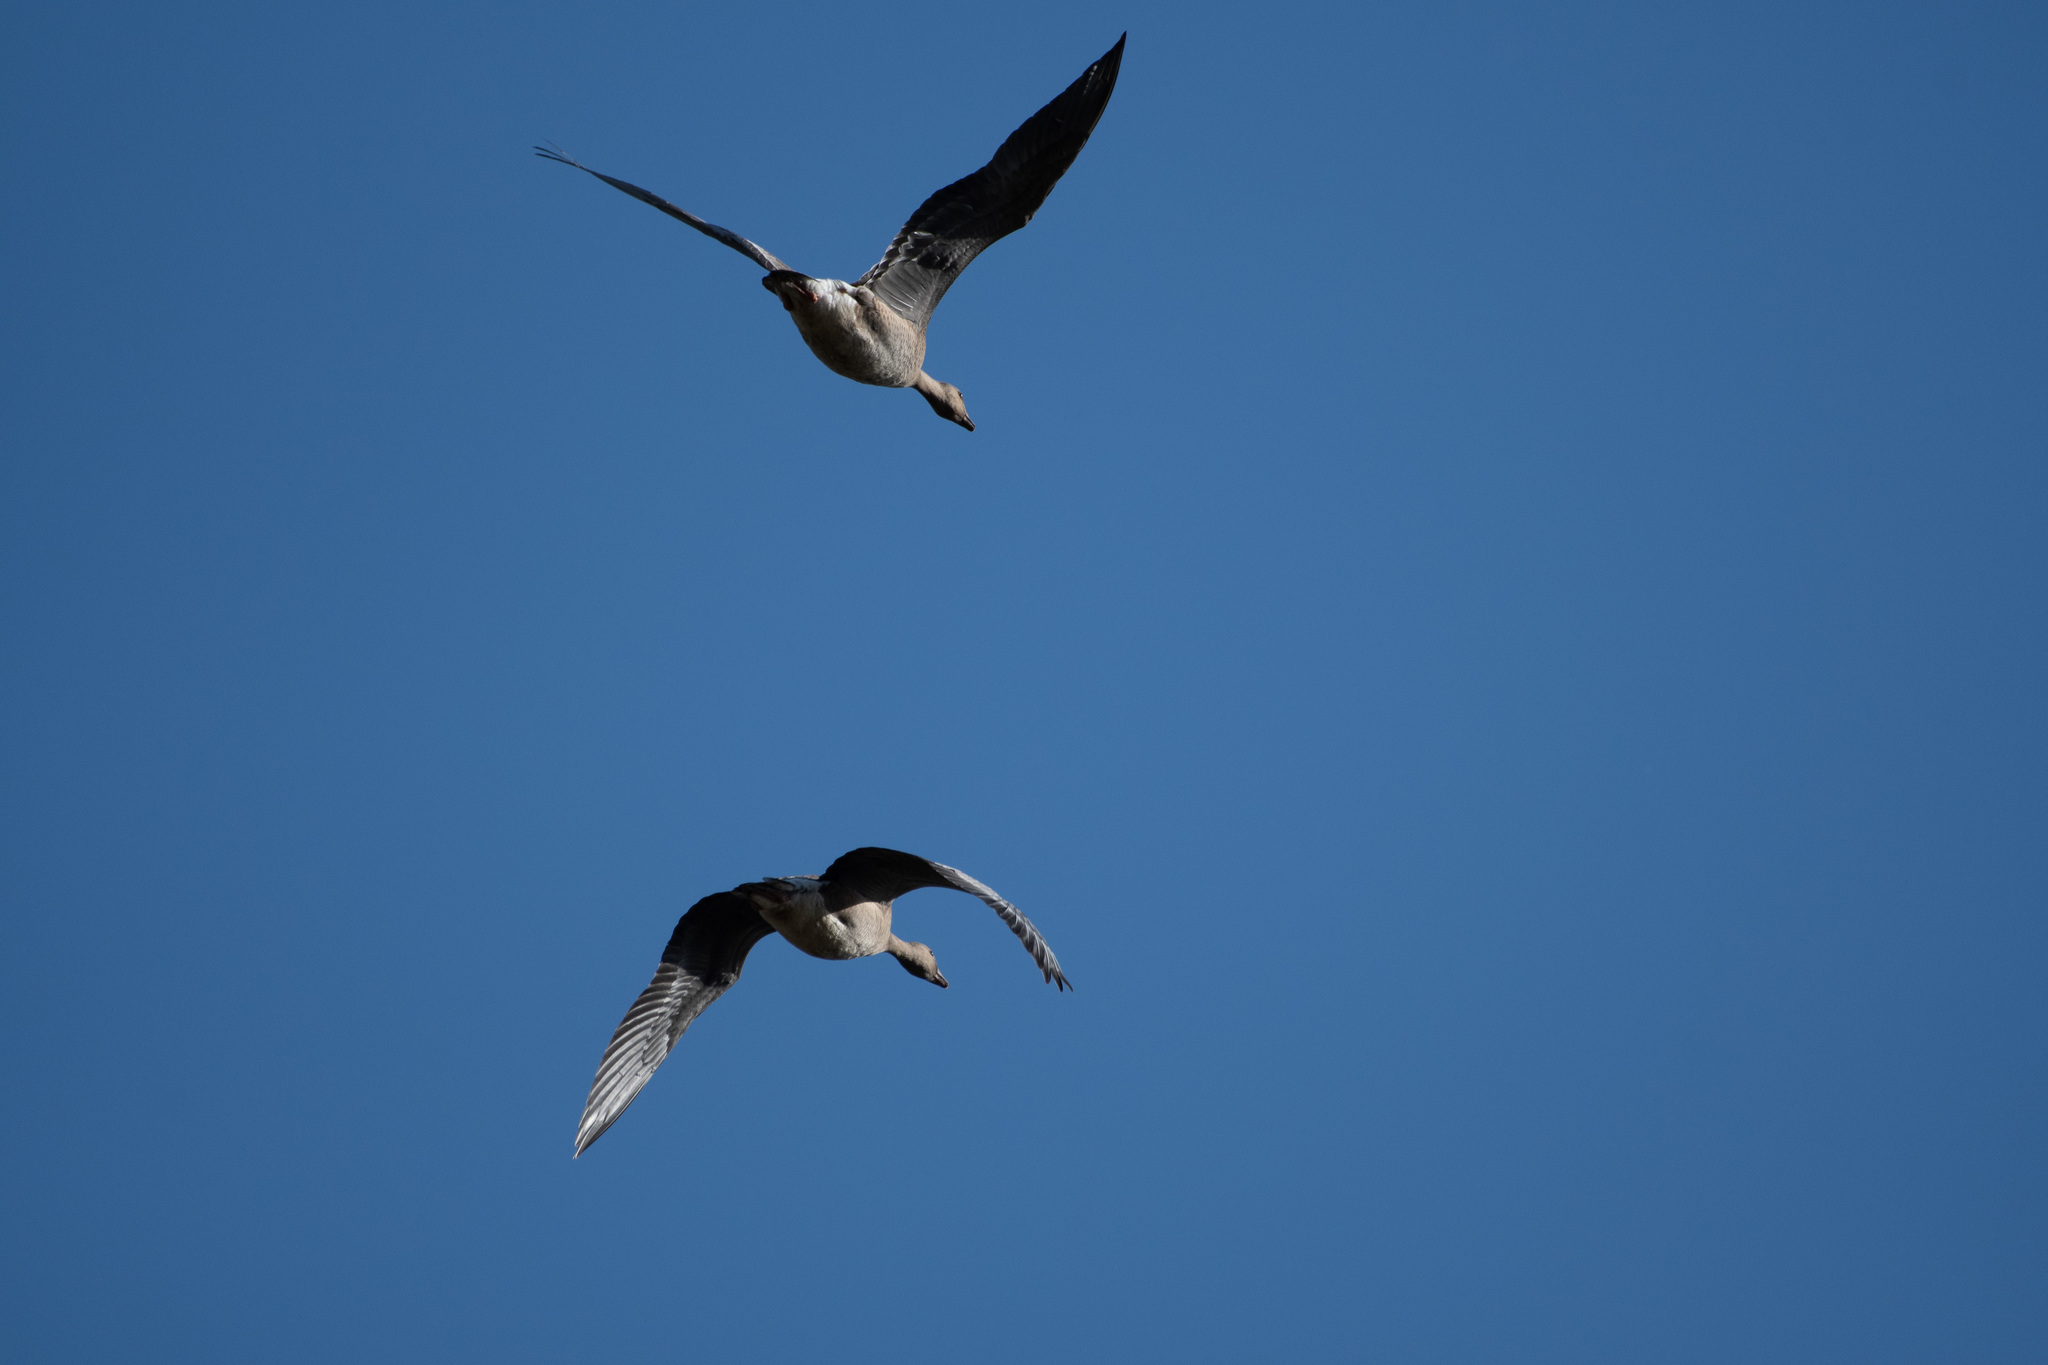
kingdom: Animalia
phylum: Chordata
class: Aves
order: Anseriformes
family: Anatidae
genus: Anser
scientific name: Anser albifrons
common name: Greater white-fronted goose
